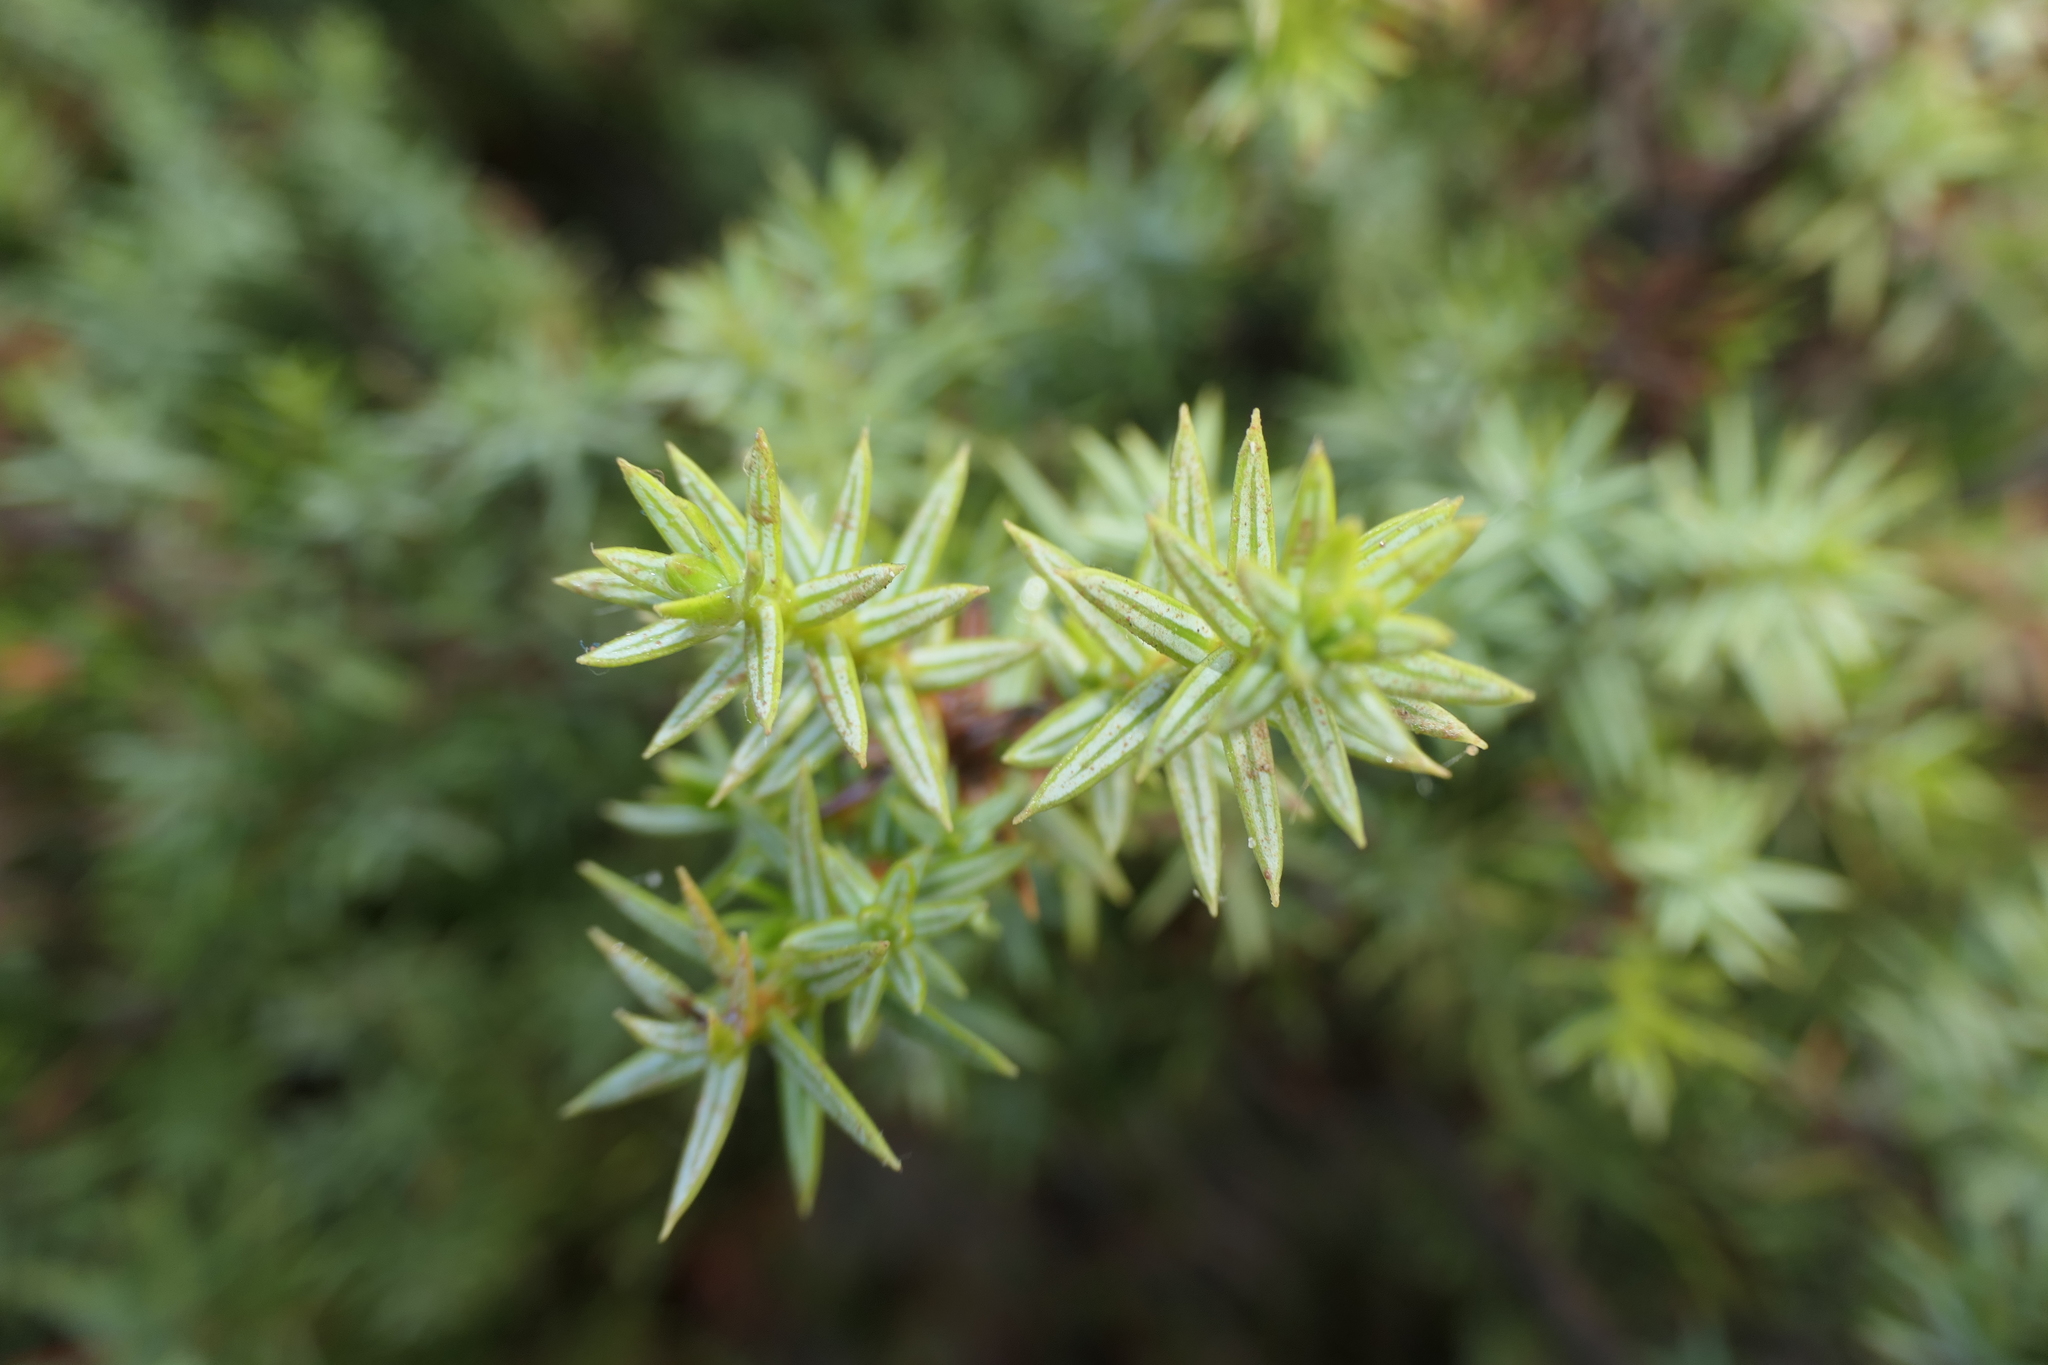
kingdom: Plantae
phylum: Tracheophyta
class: Pinopsida
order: Pinales
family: Cupressaceae
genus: Juniperus
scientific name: Juniperus oxycedrus
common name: Prickly juniper
